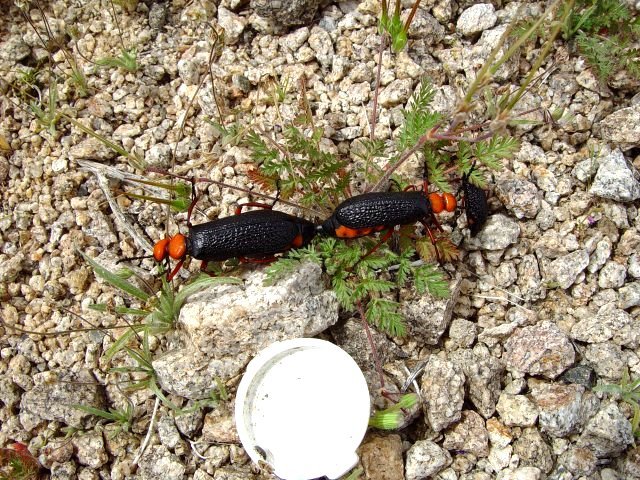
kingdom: Animalia
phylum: Arthropoda
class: Insecta
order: Coleoptera
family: Meloidae
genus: Lytta
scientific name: Lytta magister
